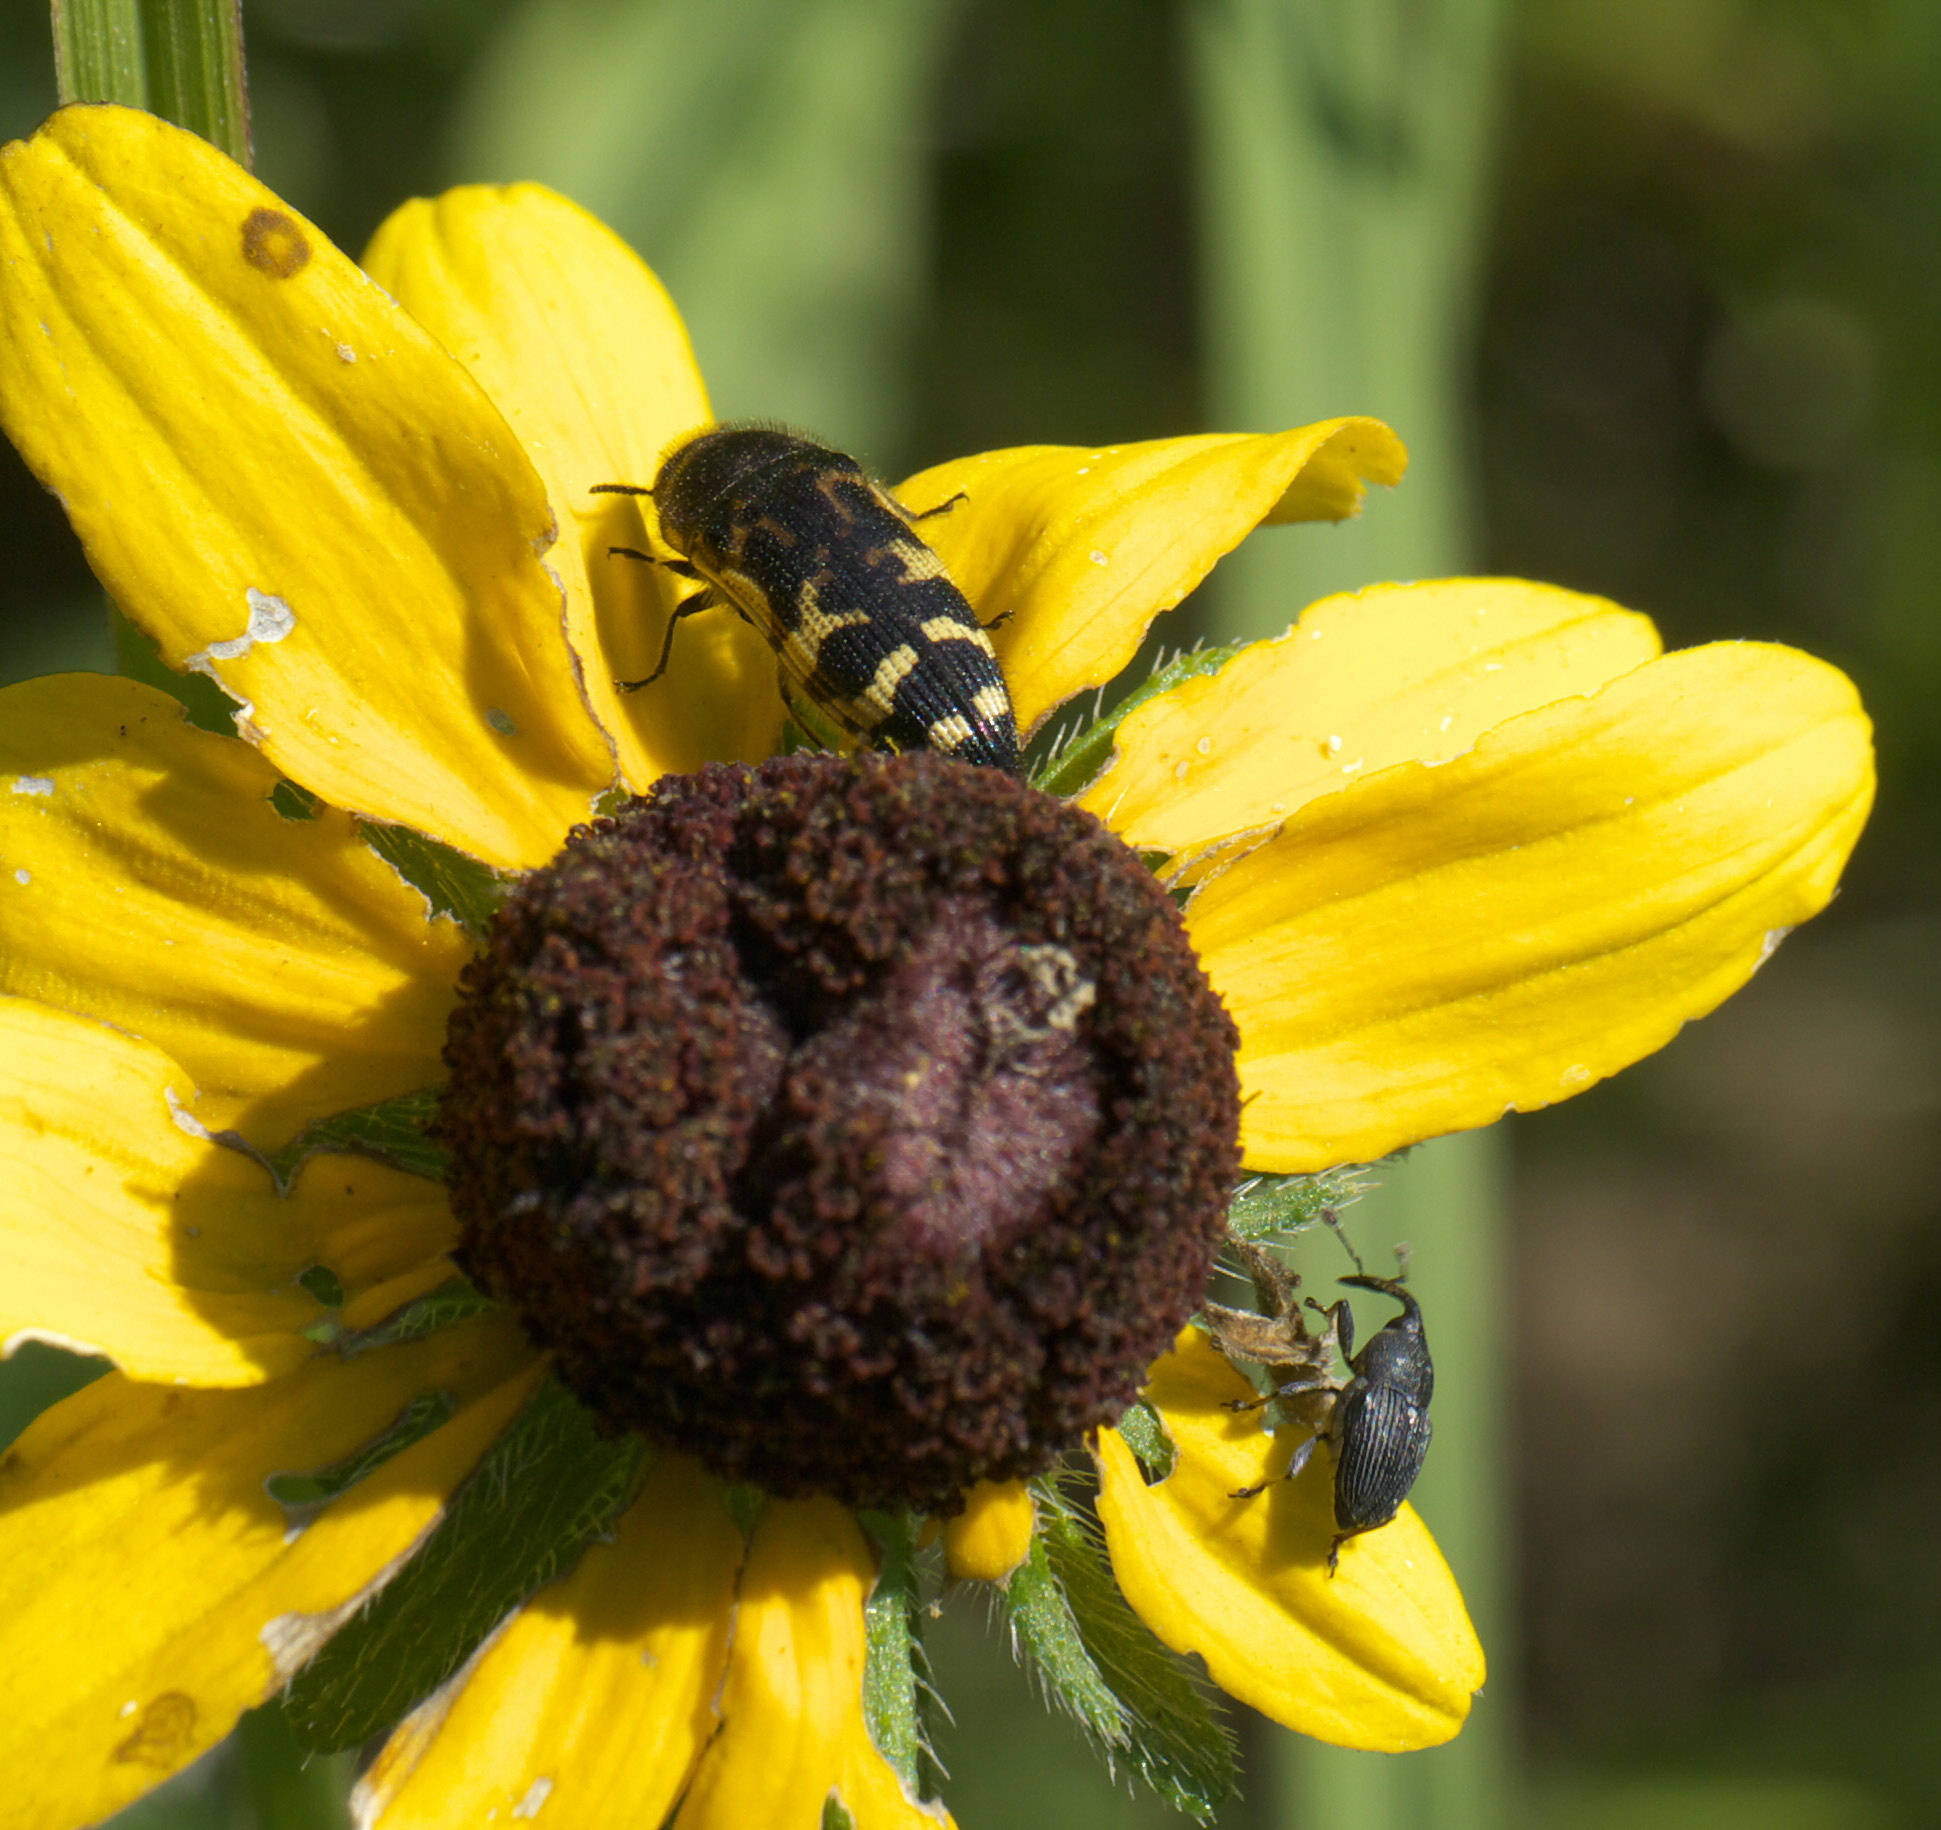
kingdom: Animalia
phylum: Arthropoda
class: Insecta
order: Coleoptera
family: Buprestidae
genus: Acmaeodera
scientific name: Acmaeodera pulchella
